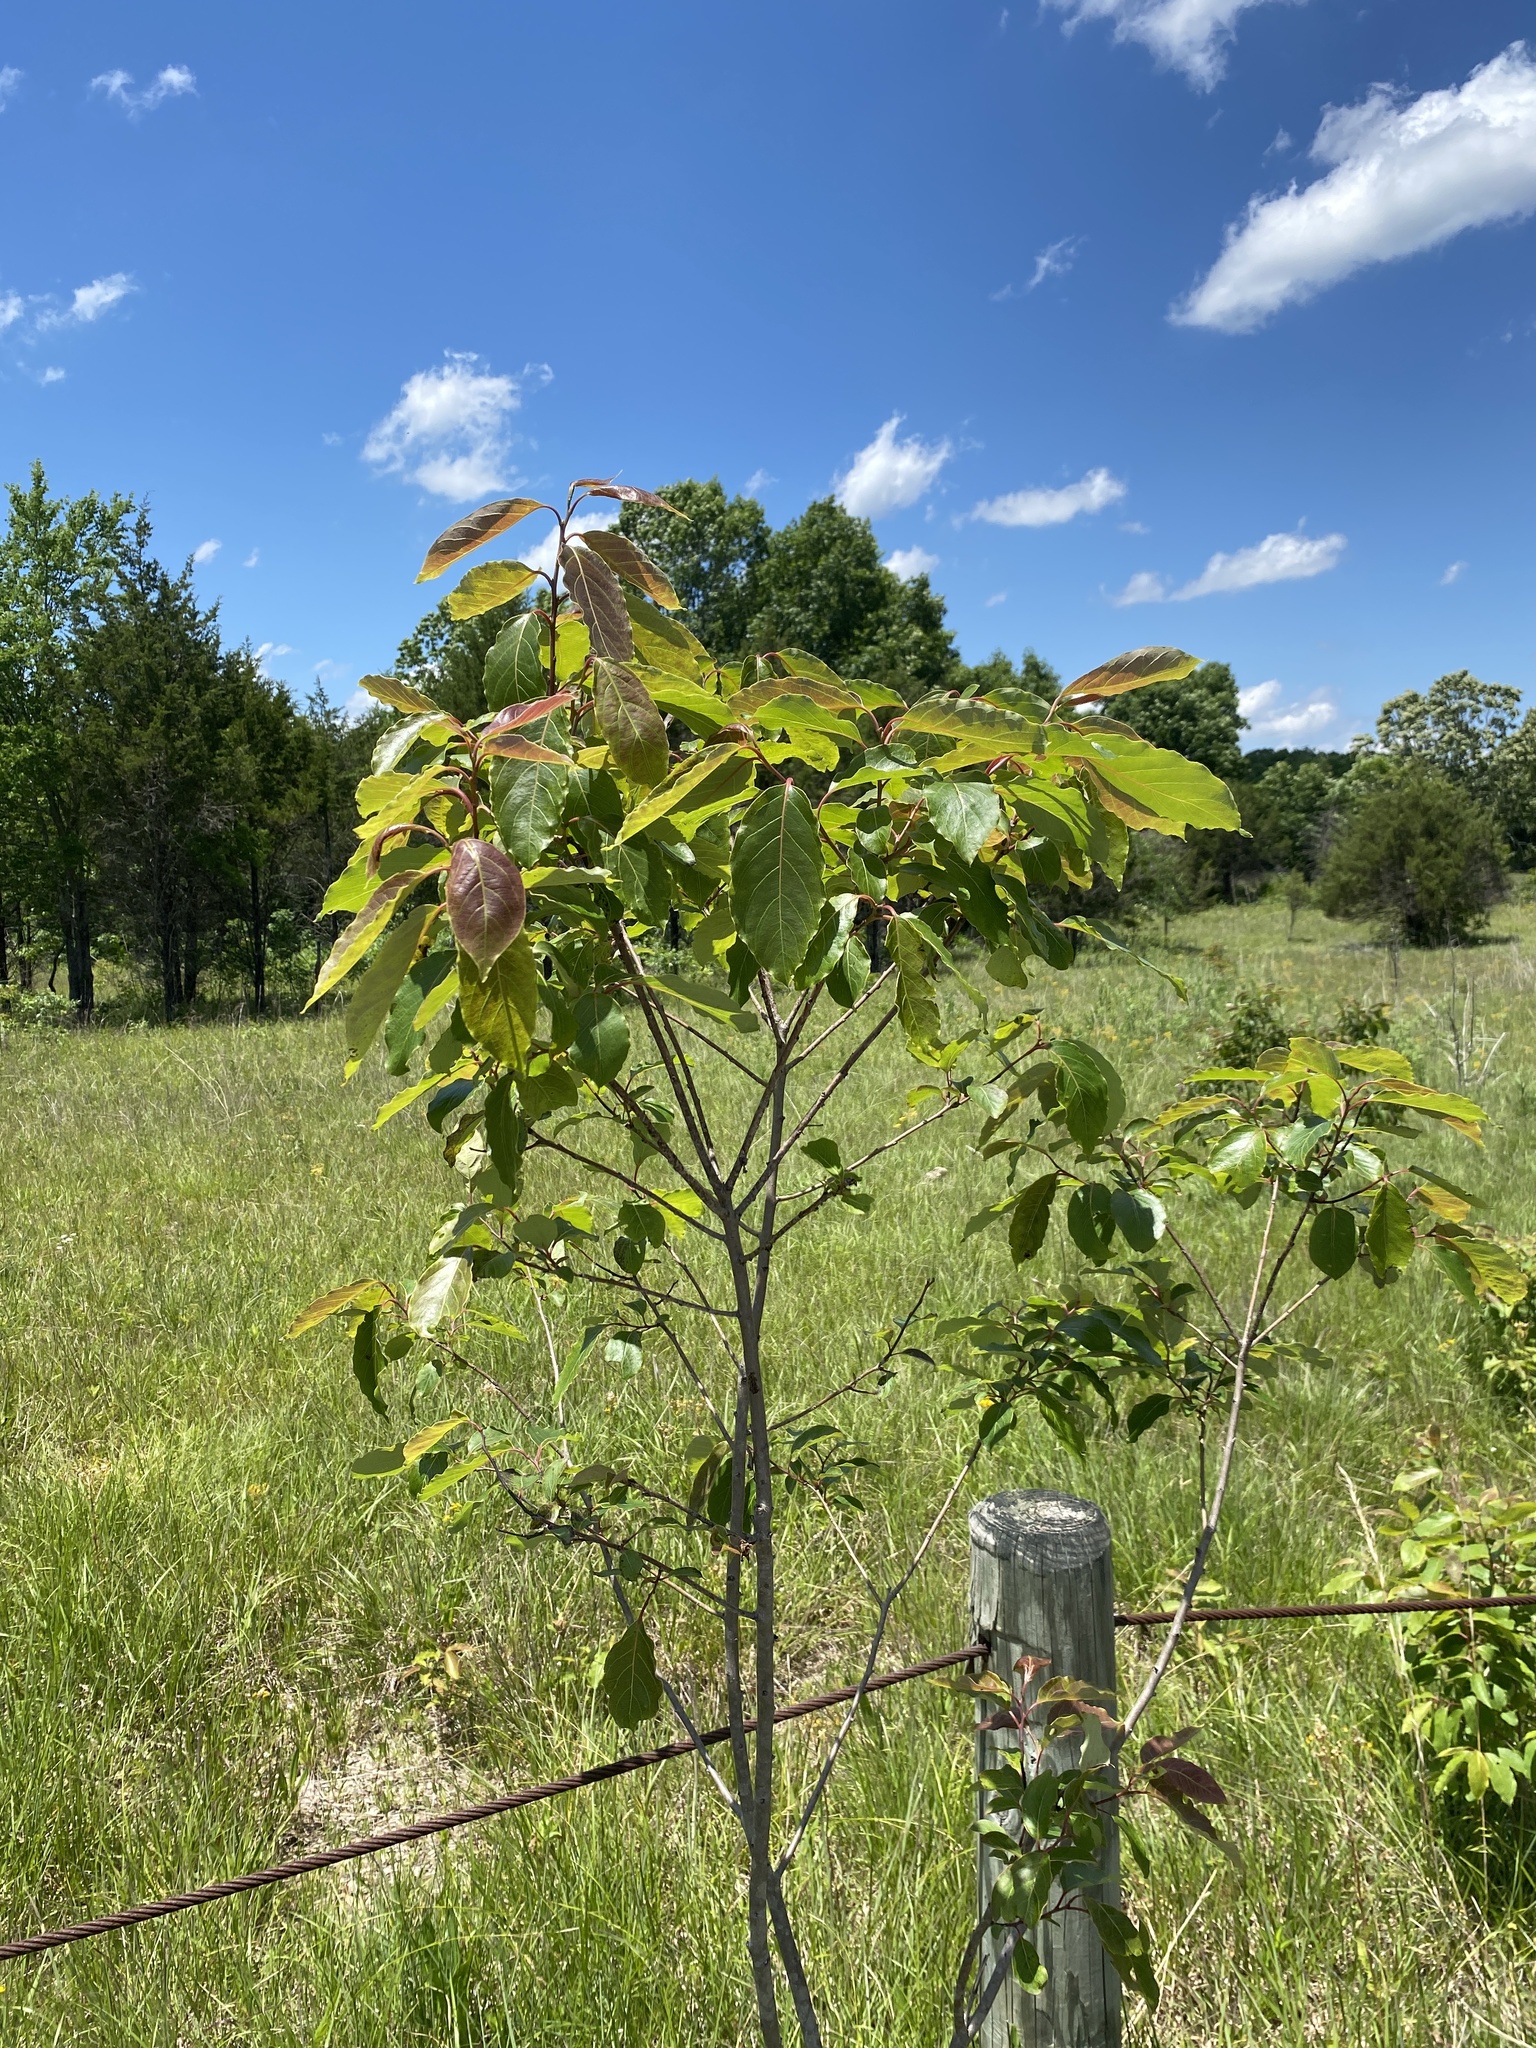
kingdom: Plantae
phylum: Tracheophyta
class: Magnoliopsida
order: Ericales
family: Ebenaceae
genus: Diospyros
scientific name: Diospyros virginiana
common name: Persimmon
